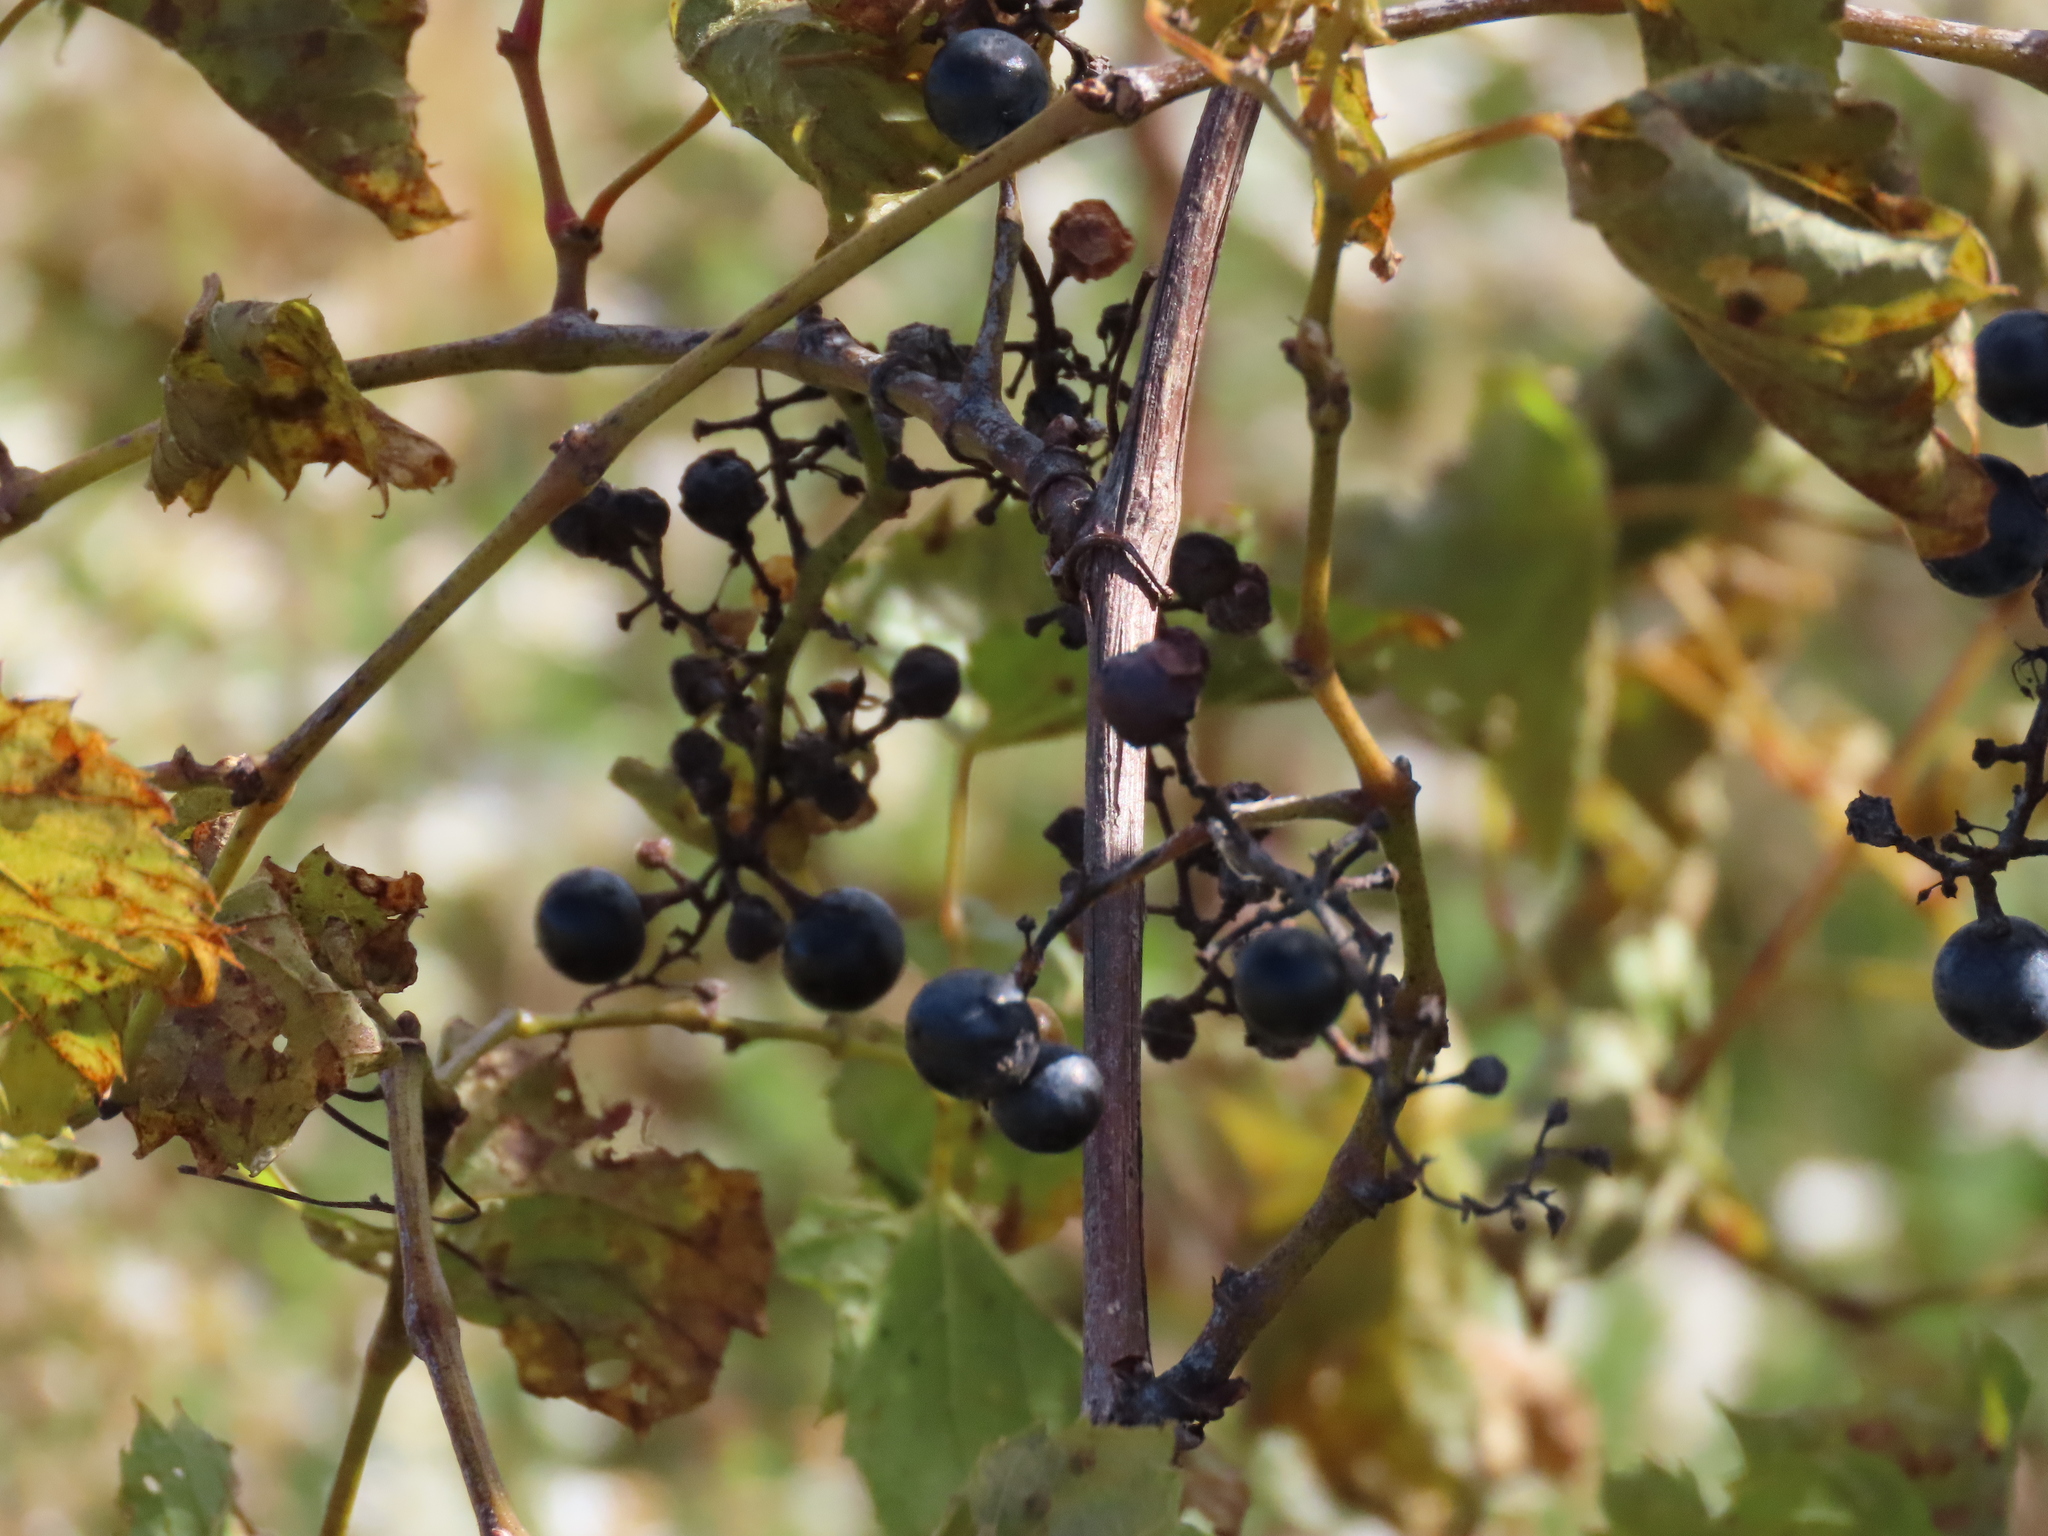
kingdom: Plantae
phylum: Tracheophyta
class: Magnoliopsida
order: Vitales
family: Vitaceae
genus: Vitis
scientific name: Vitis riparia
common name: Frost grape
